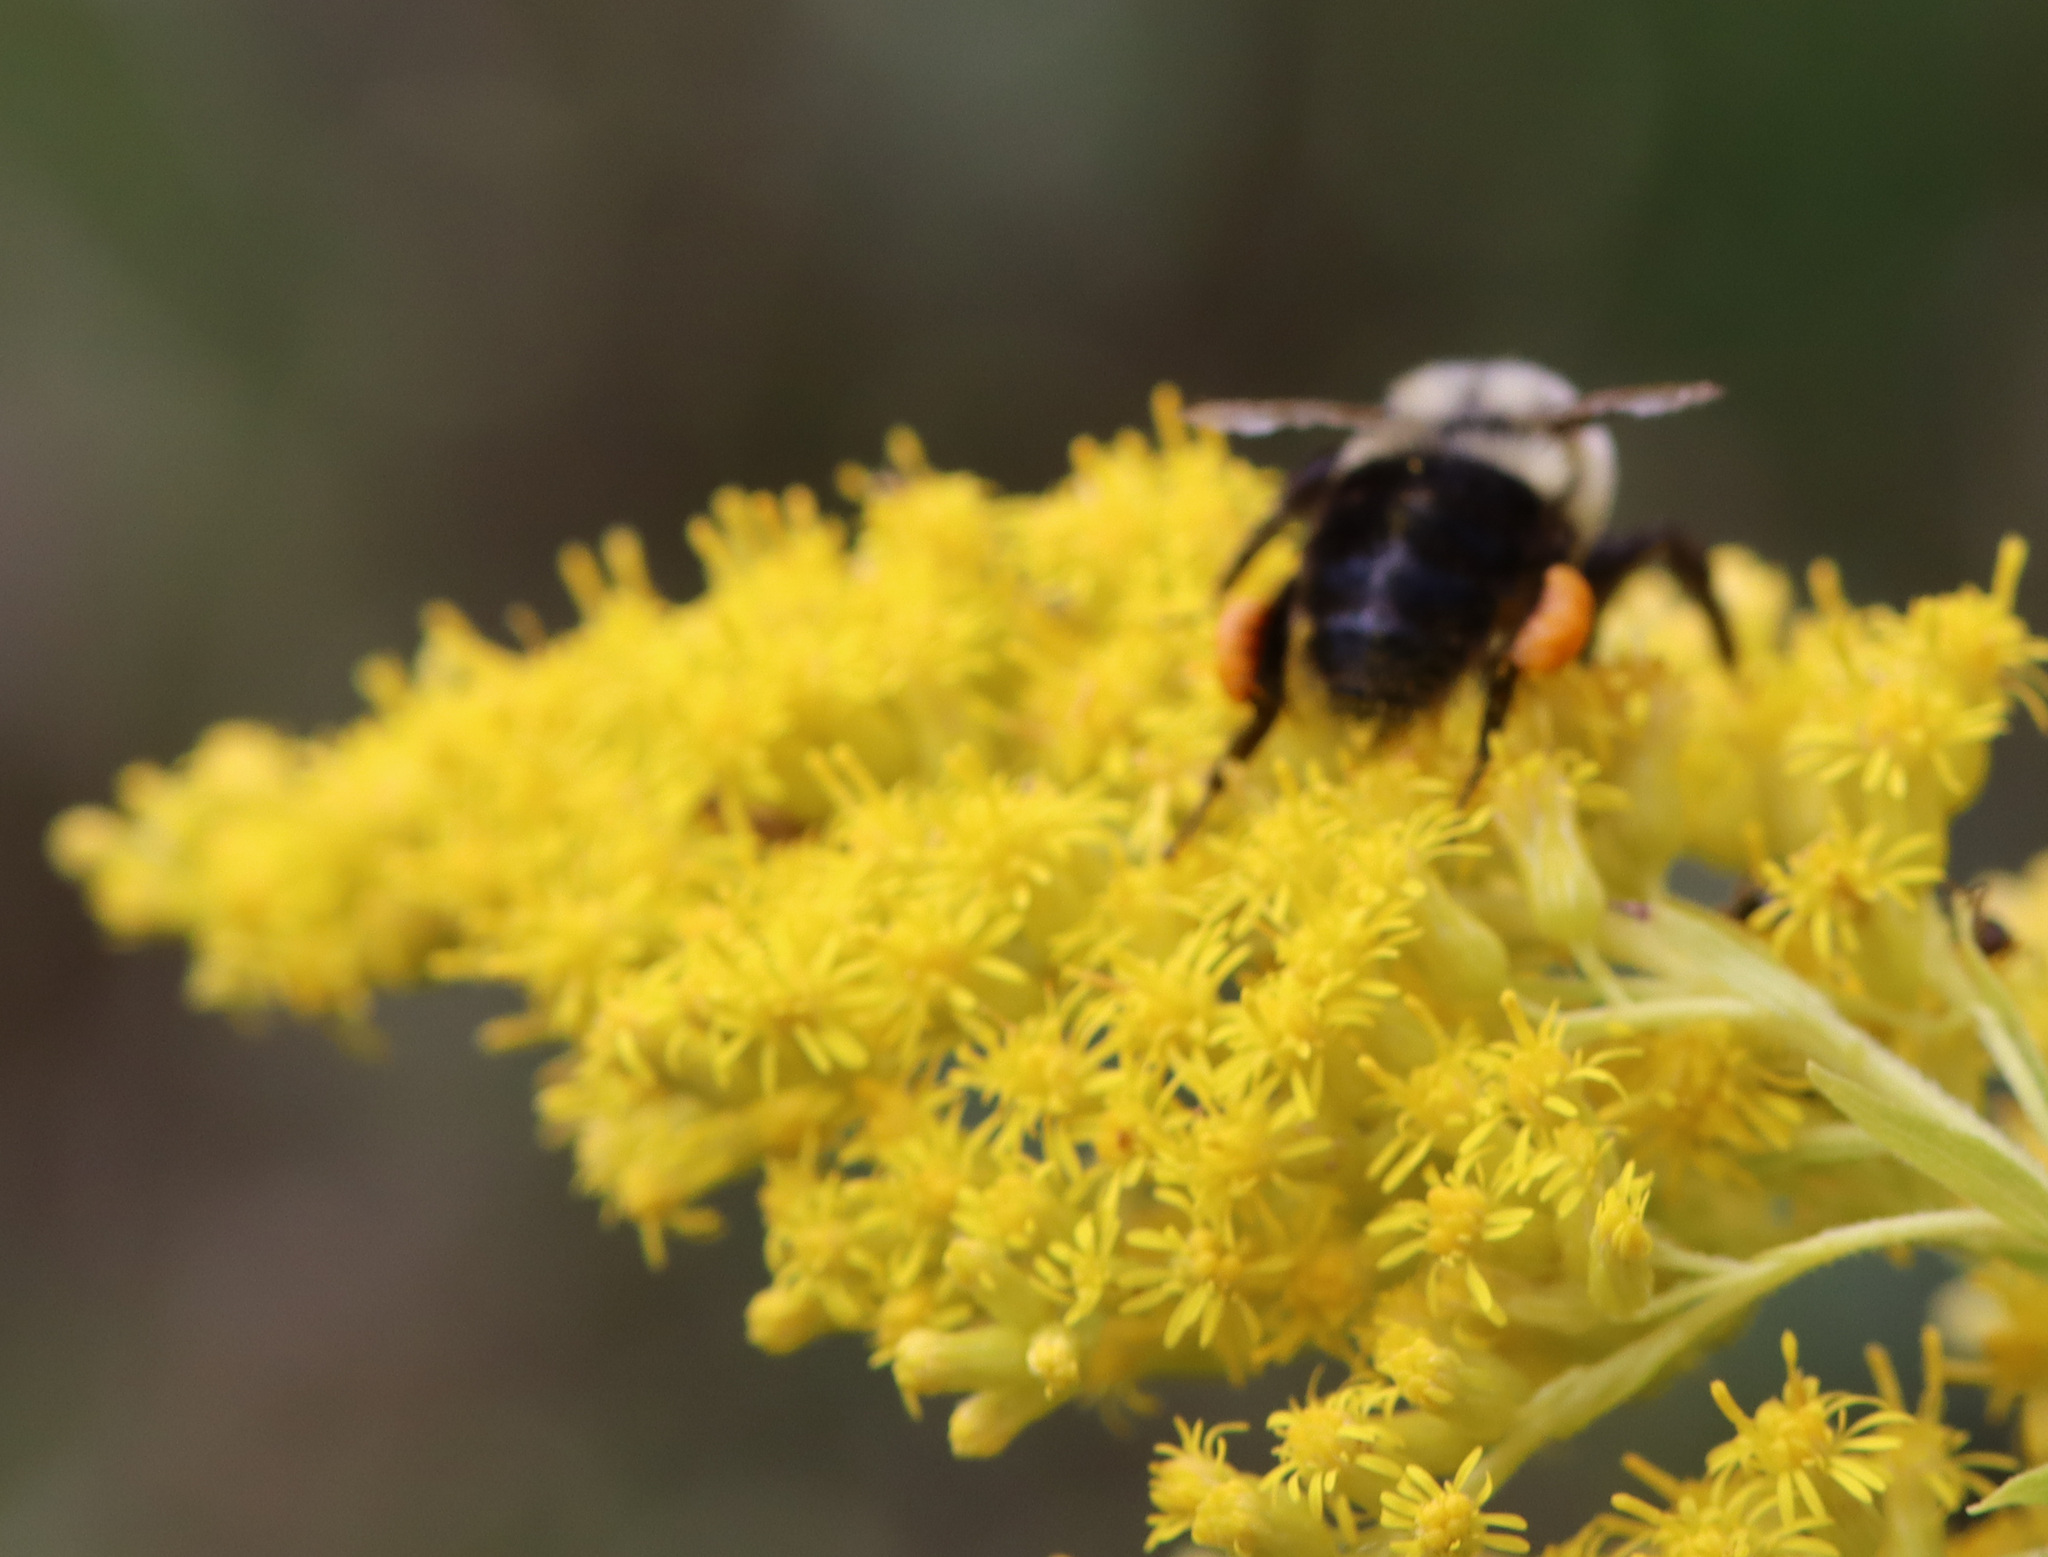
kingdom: Animalia
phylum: Arthropoda
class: Insecta
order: Hymenoptera
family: Apidae
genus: Bombus
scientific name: Bombus impatiens
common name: Common eastern bumble bee
